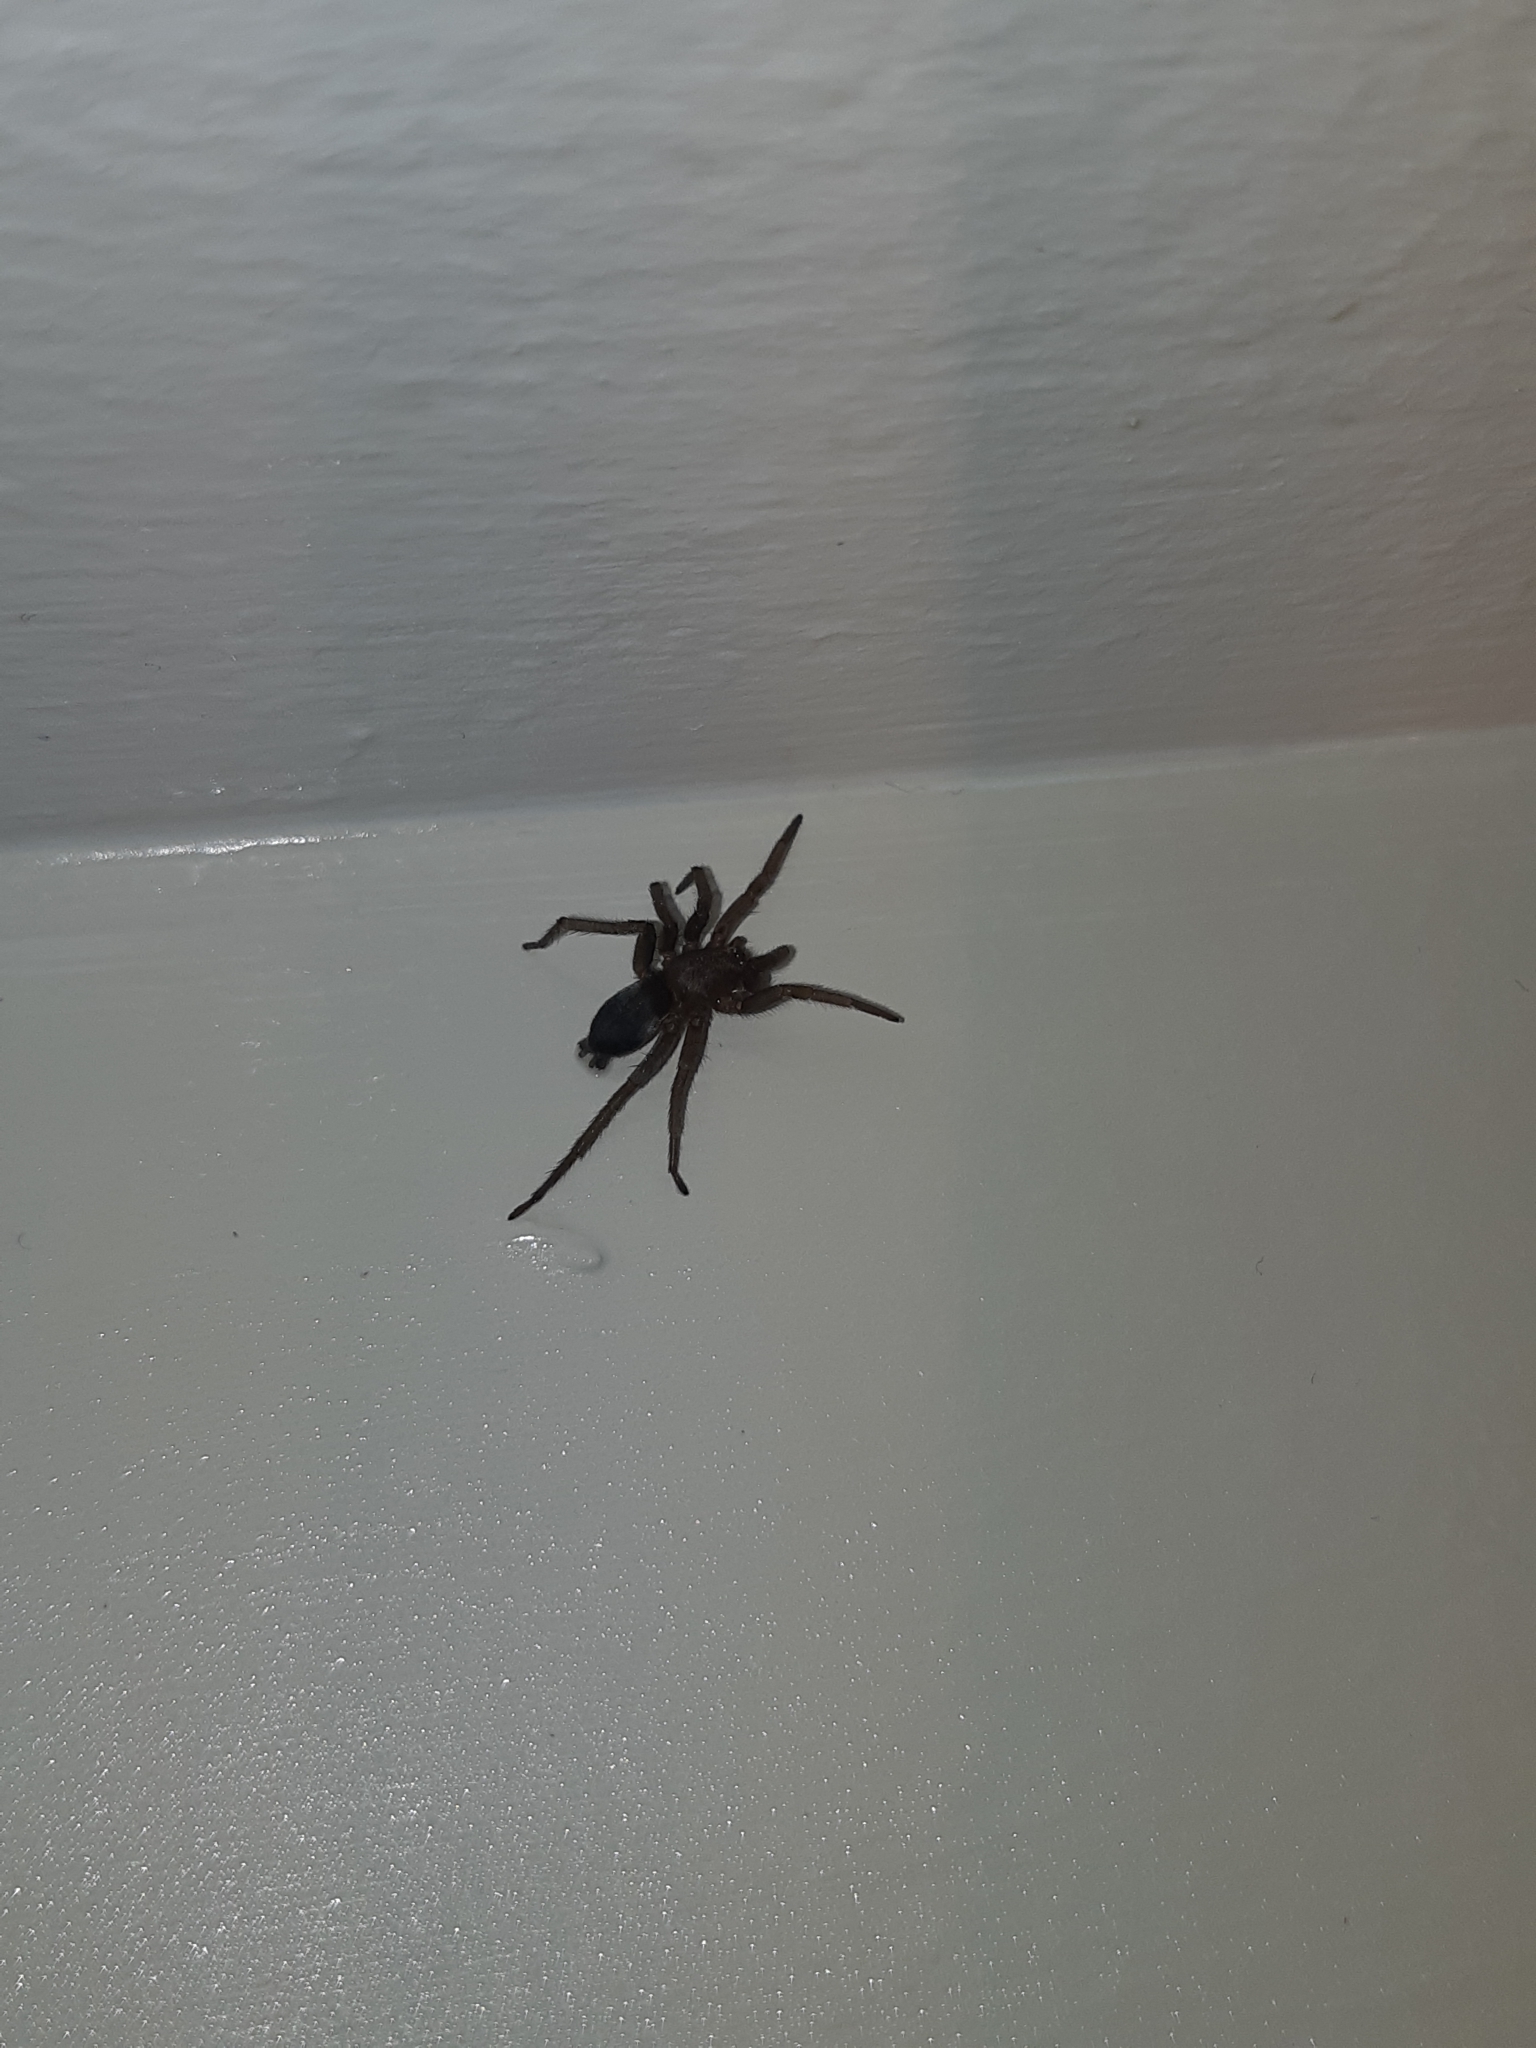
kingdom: Animalia
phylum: Arthropoda
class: Arachnida
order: Araneae
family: Gnaphosidae
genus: Scotophaeus
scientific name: Scotophaeus blackwalli
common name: Mouse spider
